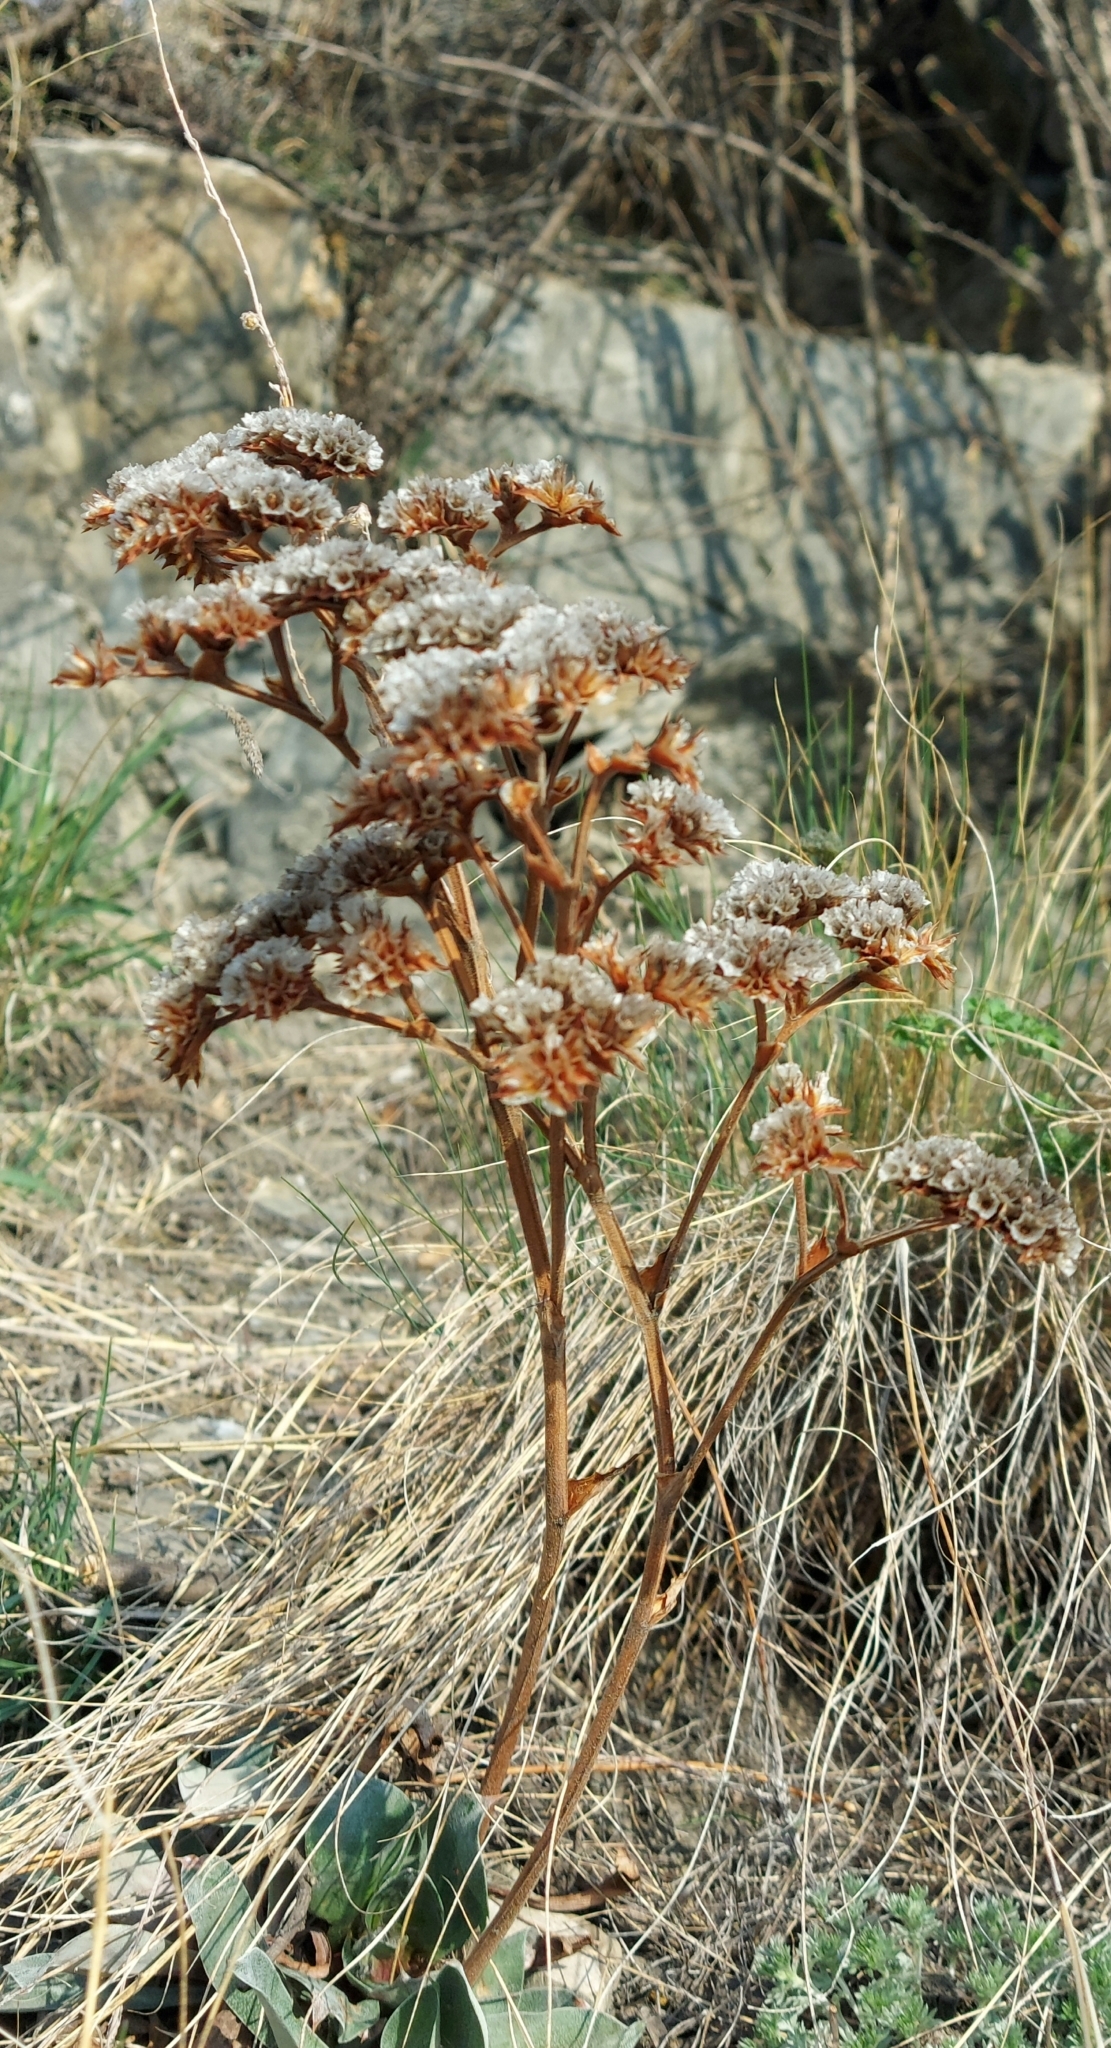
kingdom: Plantae
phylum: Tracheophyta
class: Magnoliopsida
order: Caryophyllales
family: Plumbaginaceae
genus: Goniolimon
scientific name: Goniolimon speciosum
